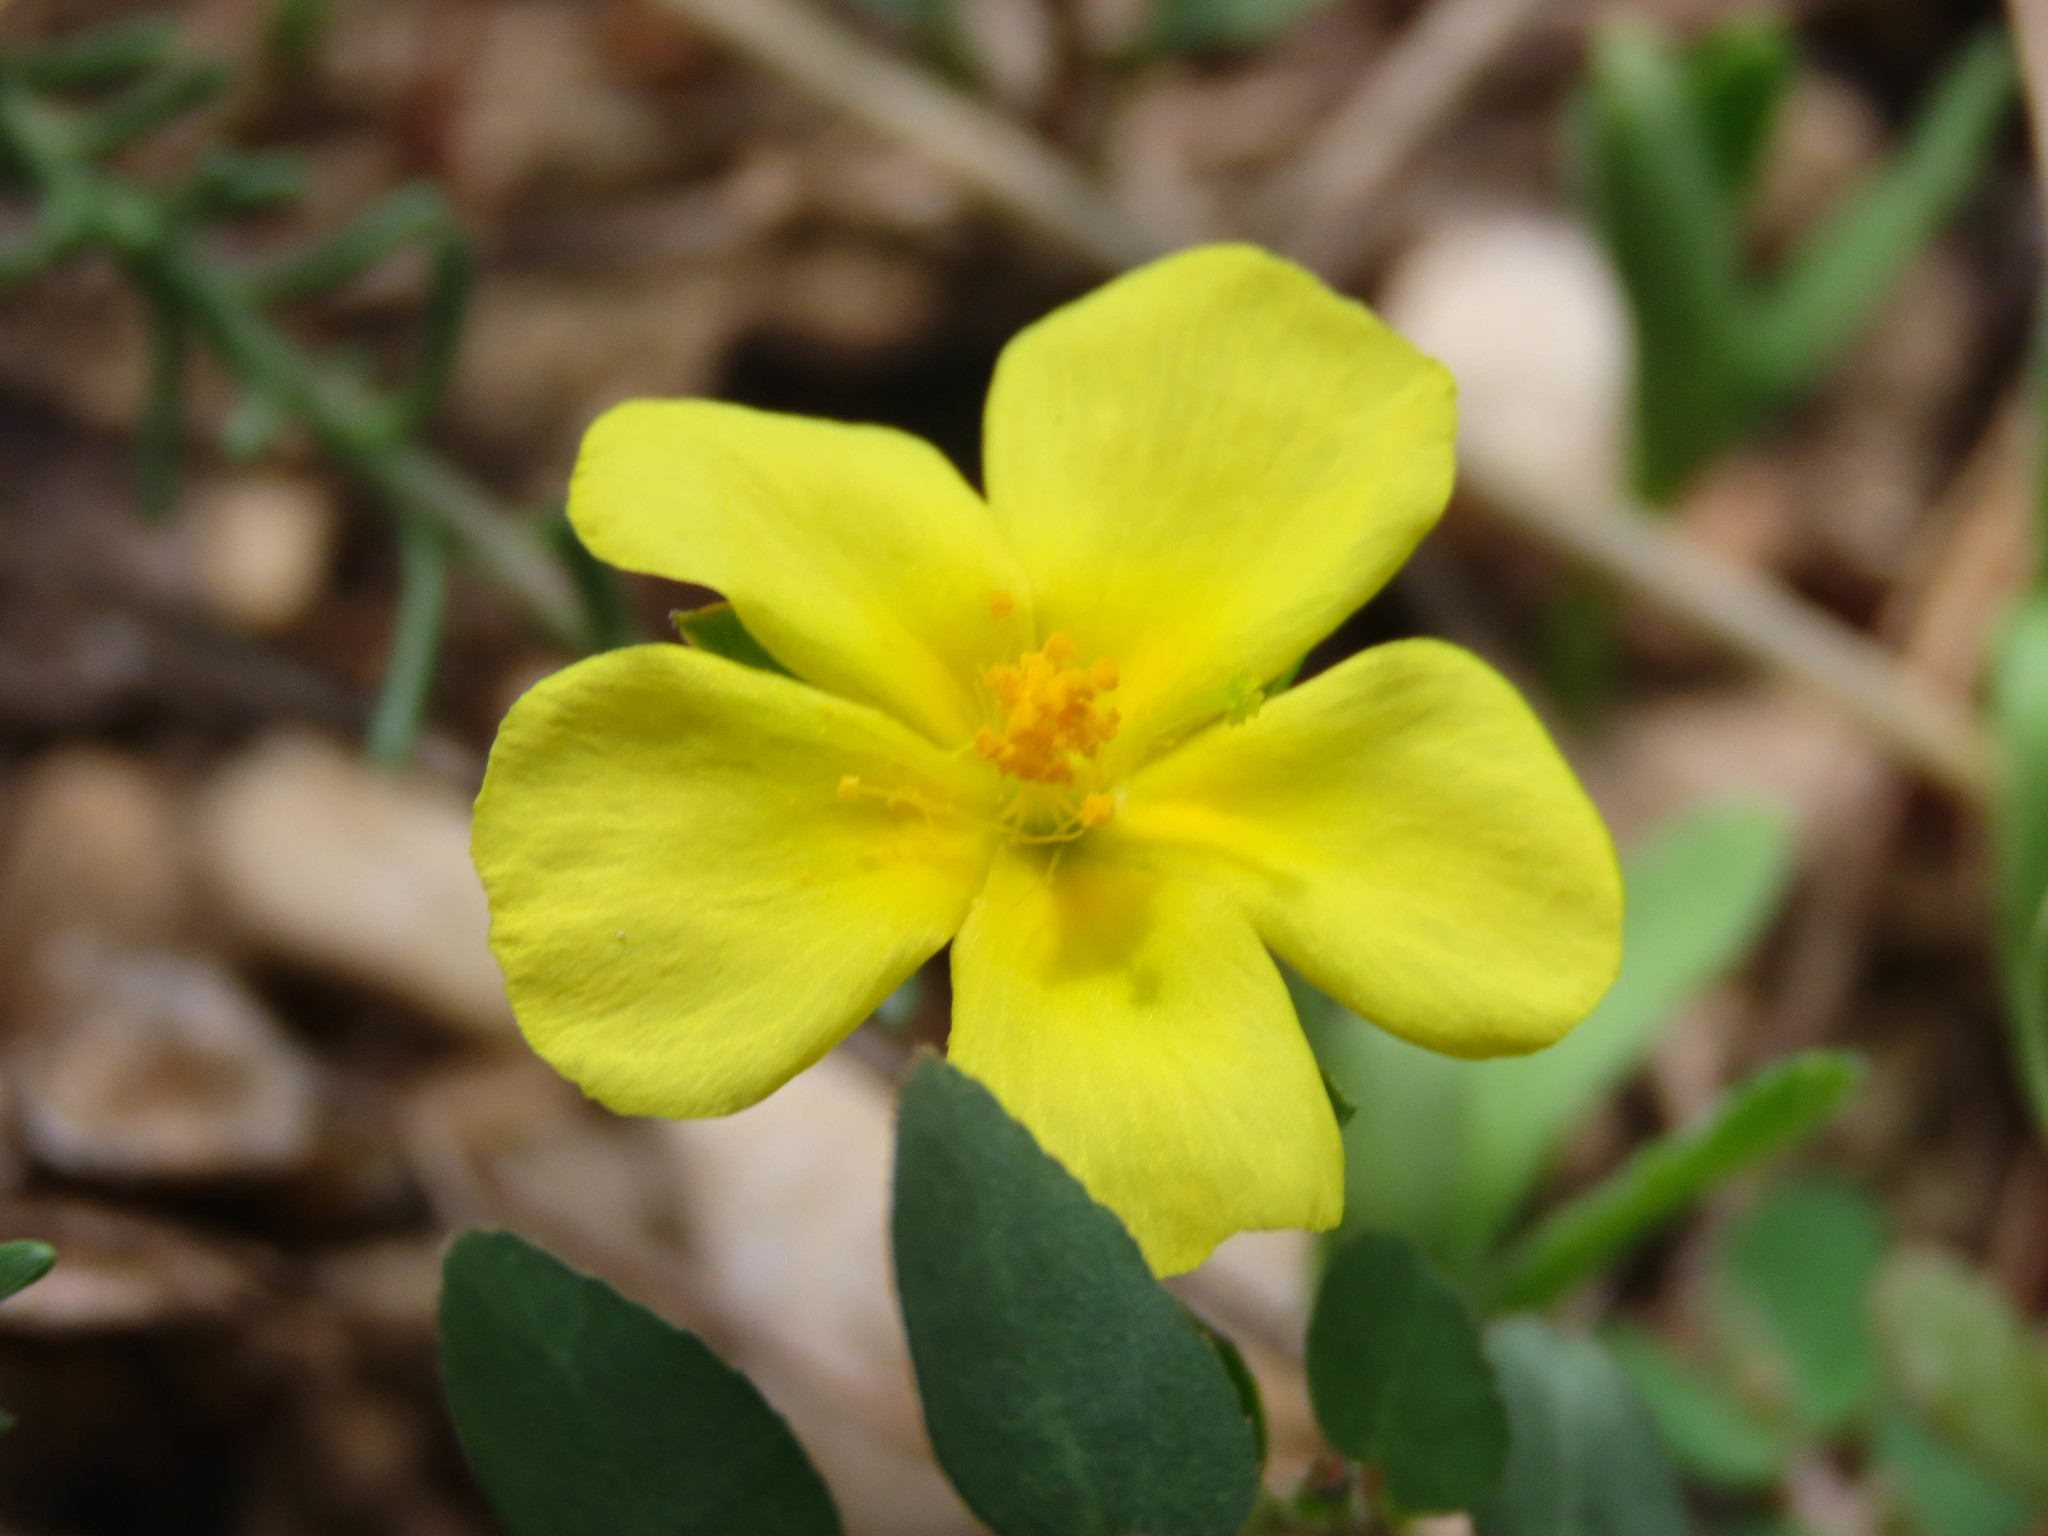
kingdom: Plantae
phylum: Tracheophyta
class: Magnoliopsida
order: Malvales
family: Cistaceae
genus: Fumana
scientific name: Fumana procumbens
